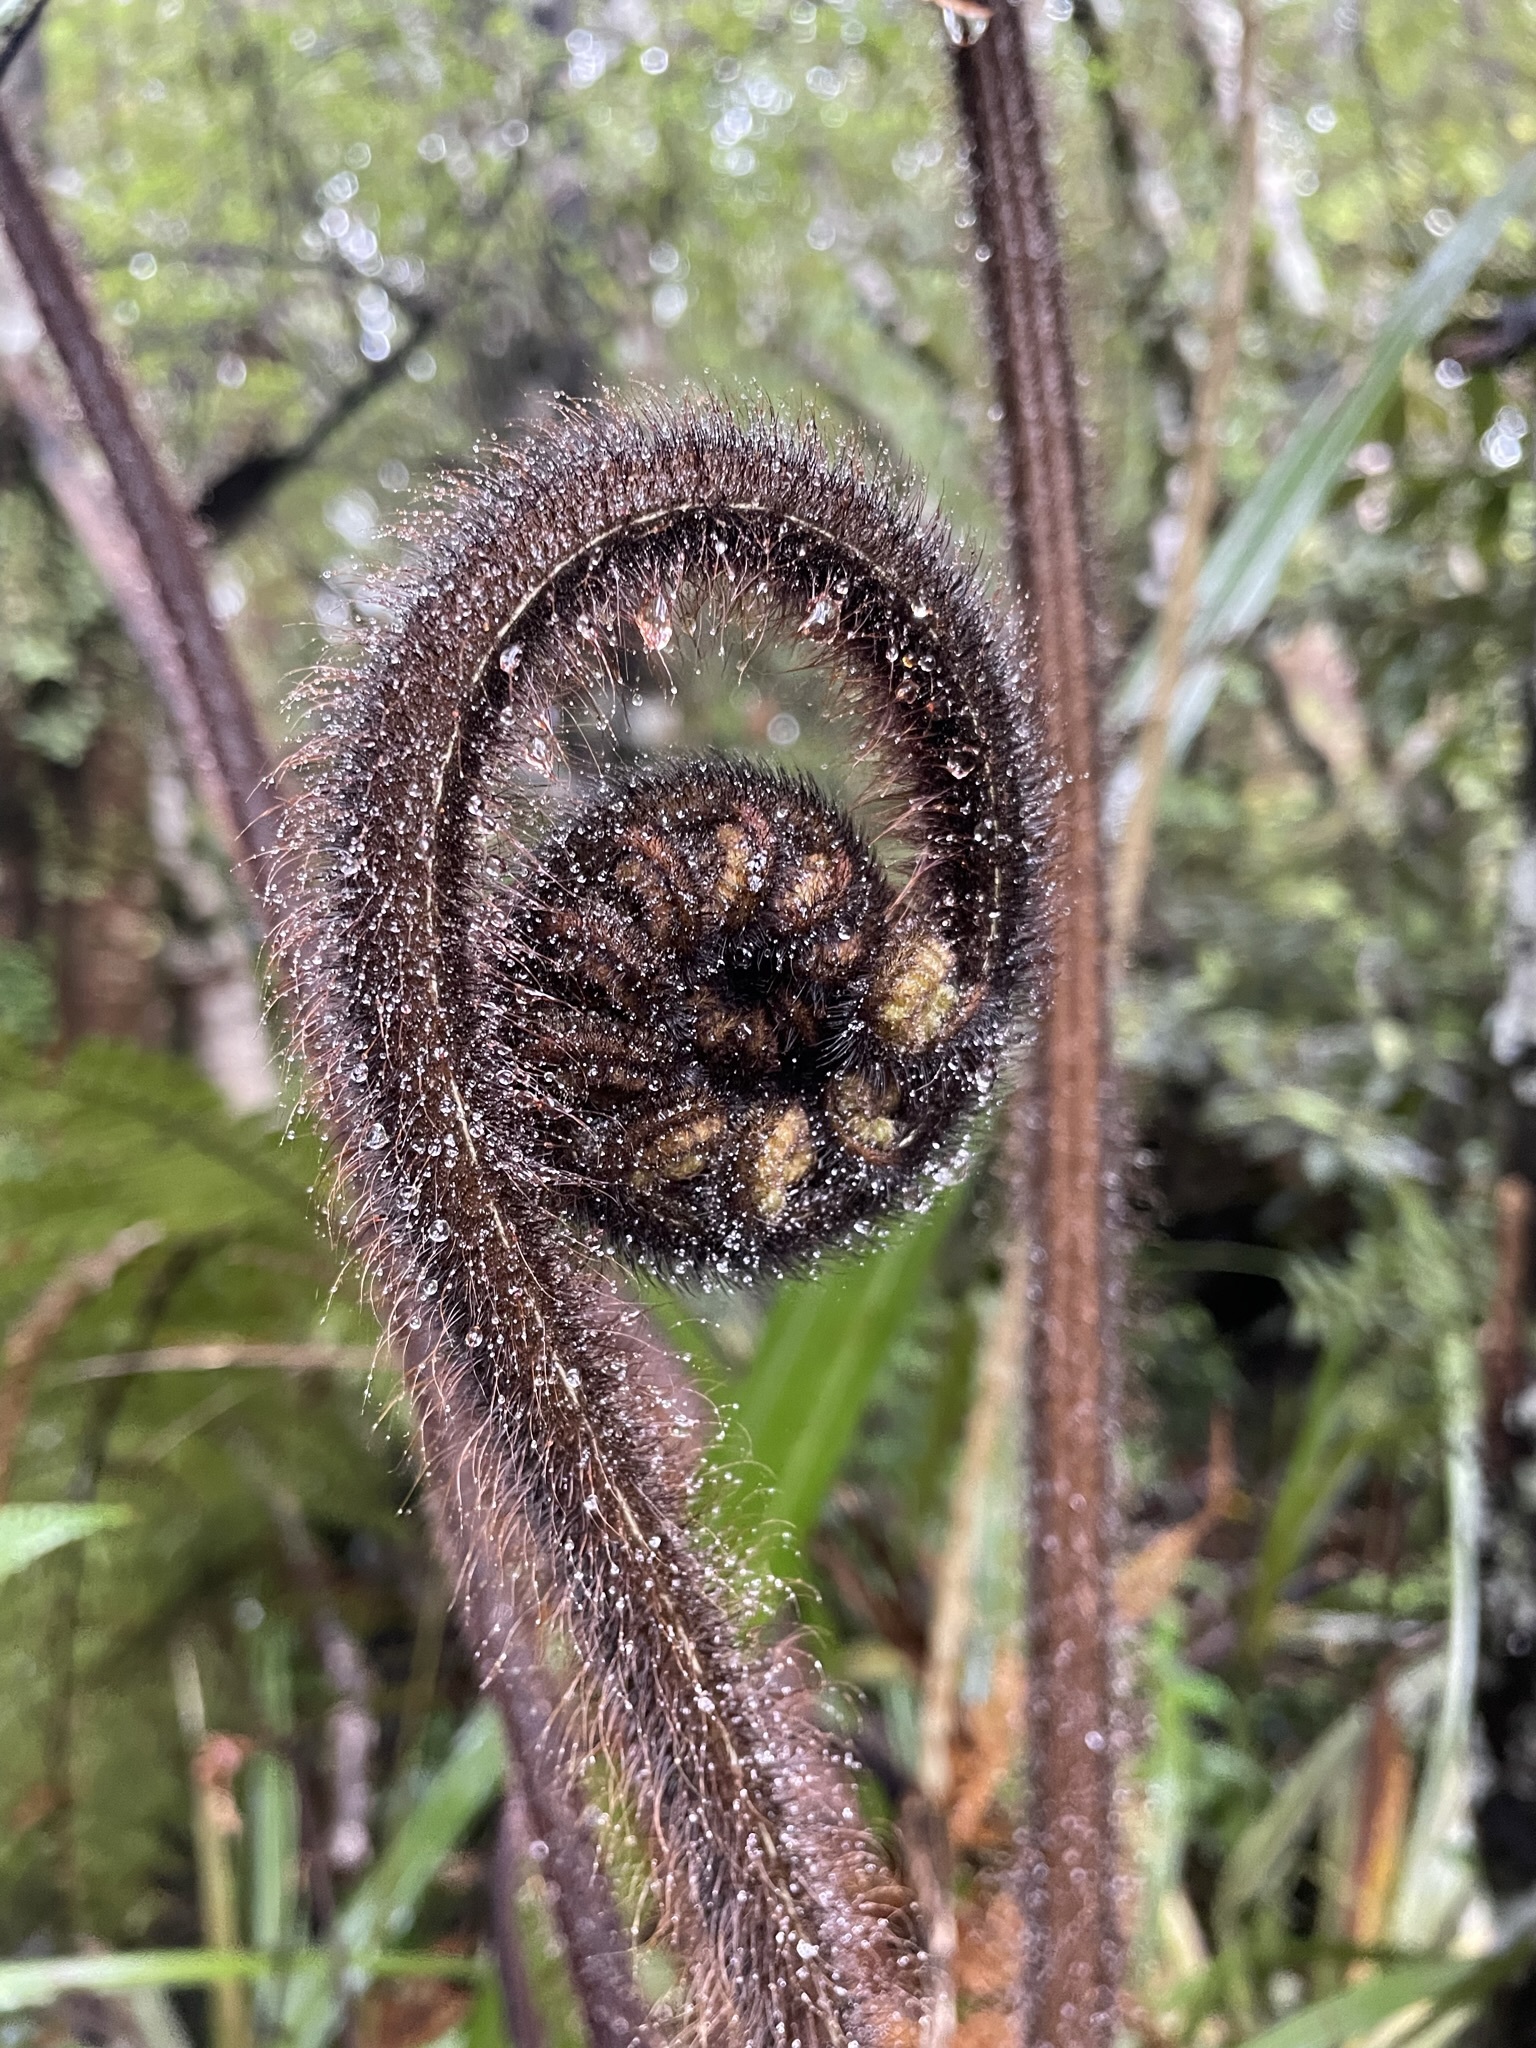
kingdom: Plantae
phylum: Tracheophyta
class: Polypodiopsida
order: Cyatheales
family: Dicksoniaceae
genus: Dicksonia
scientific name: Dicksonia squarrosa
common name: Hard treefern
